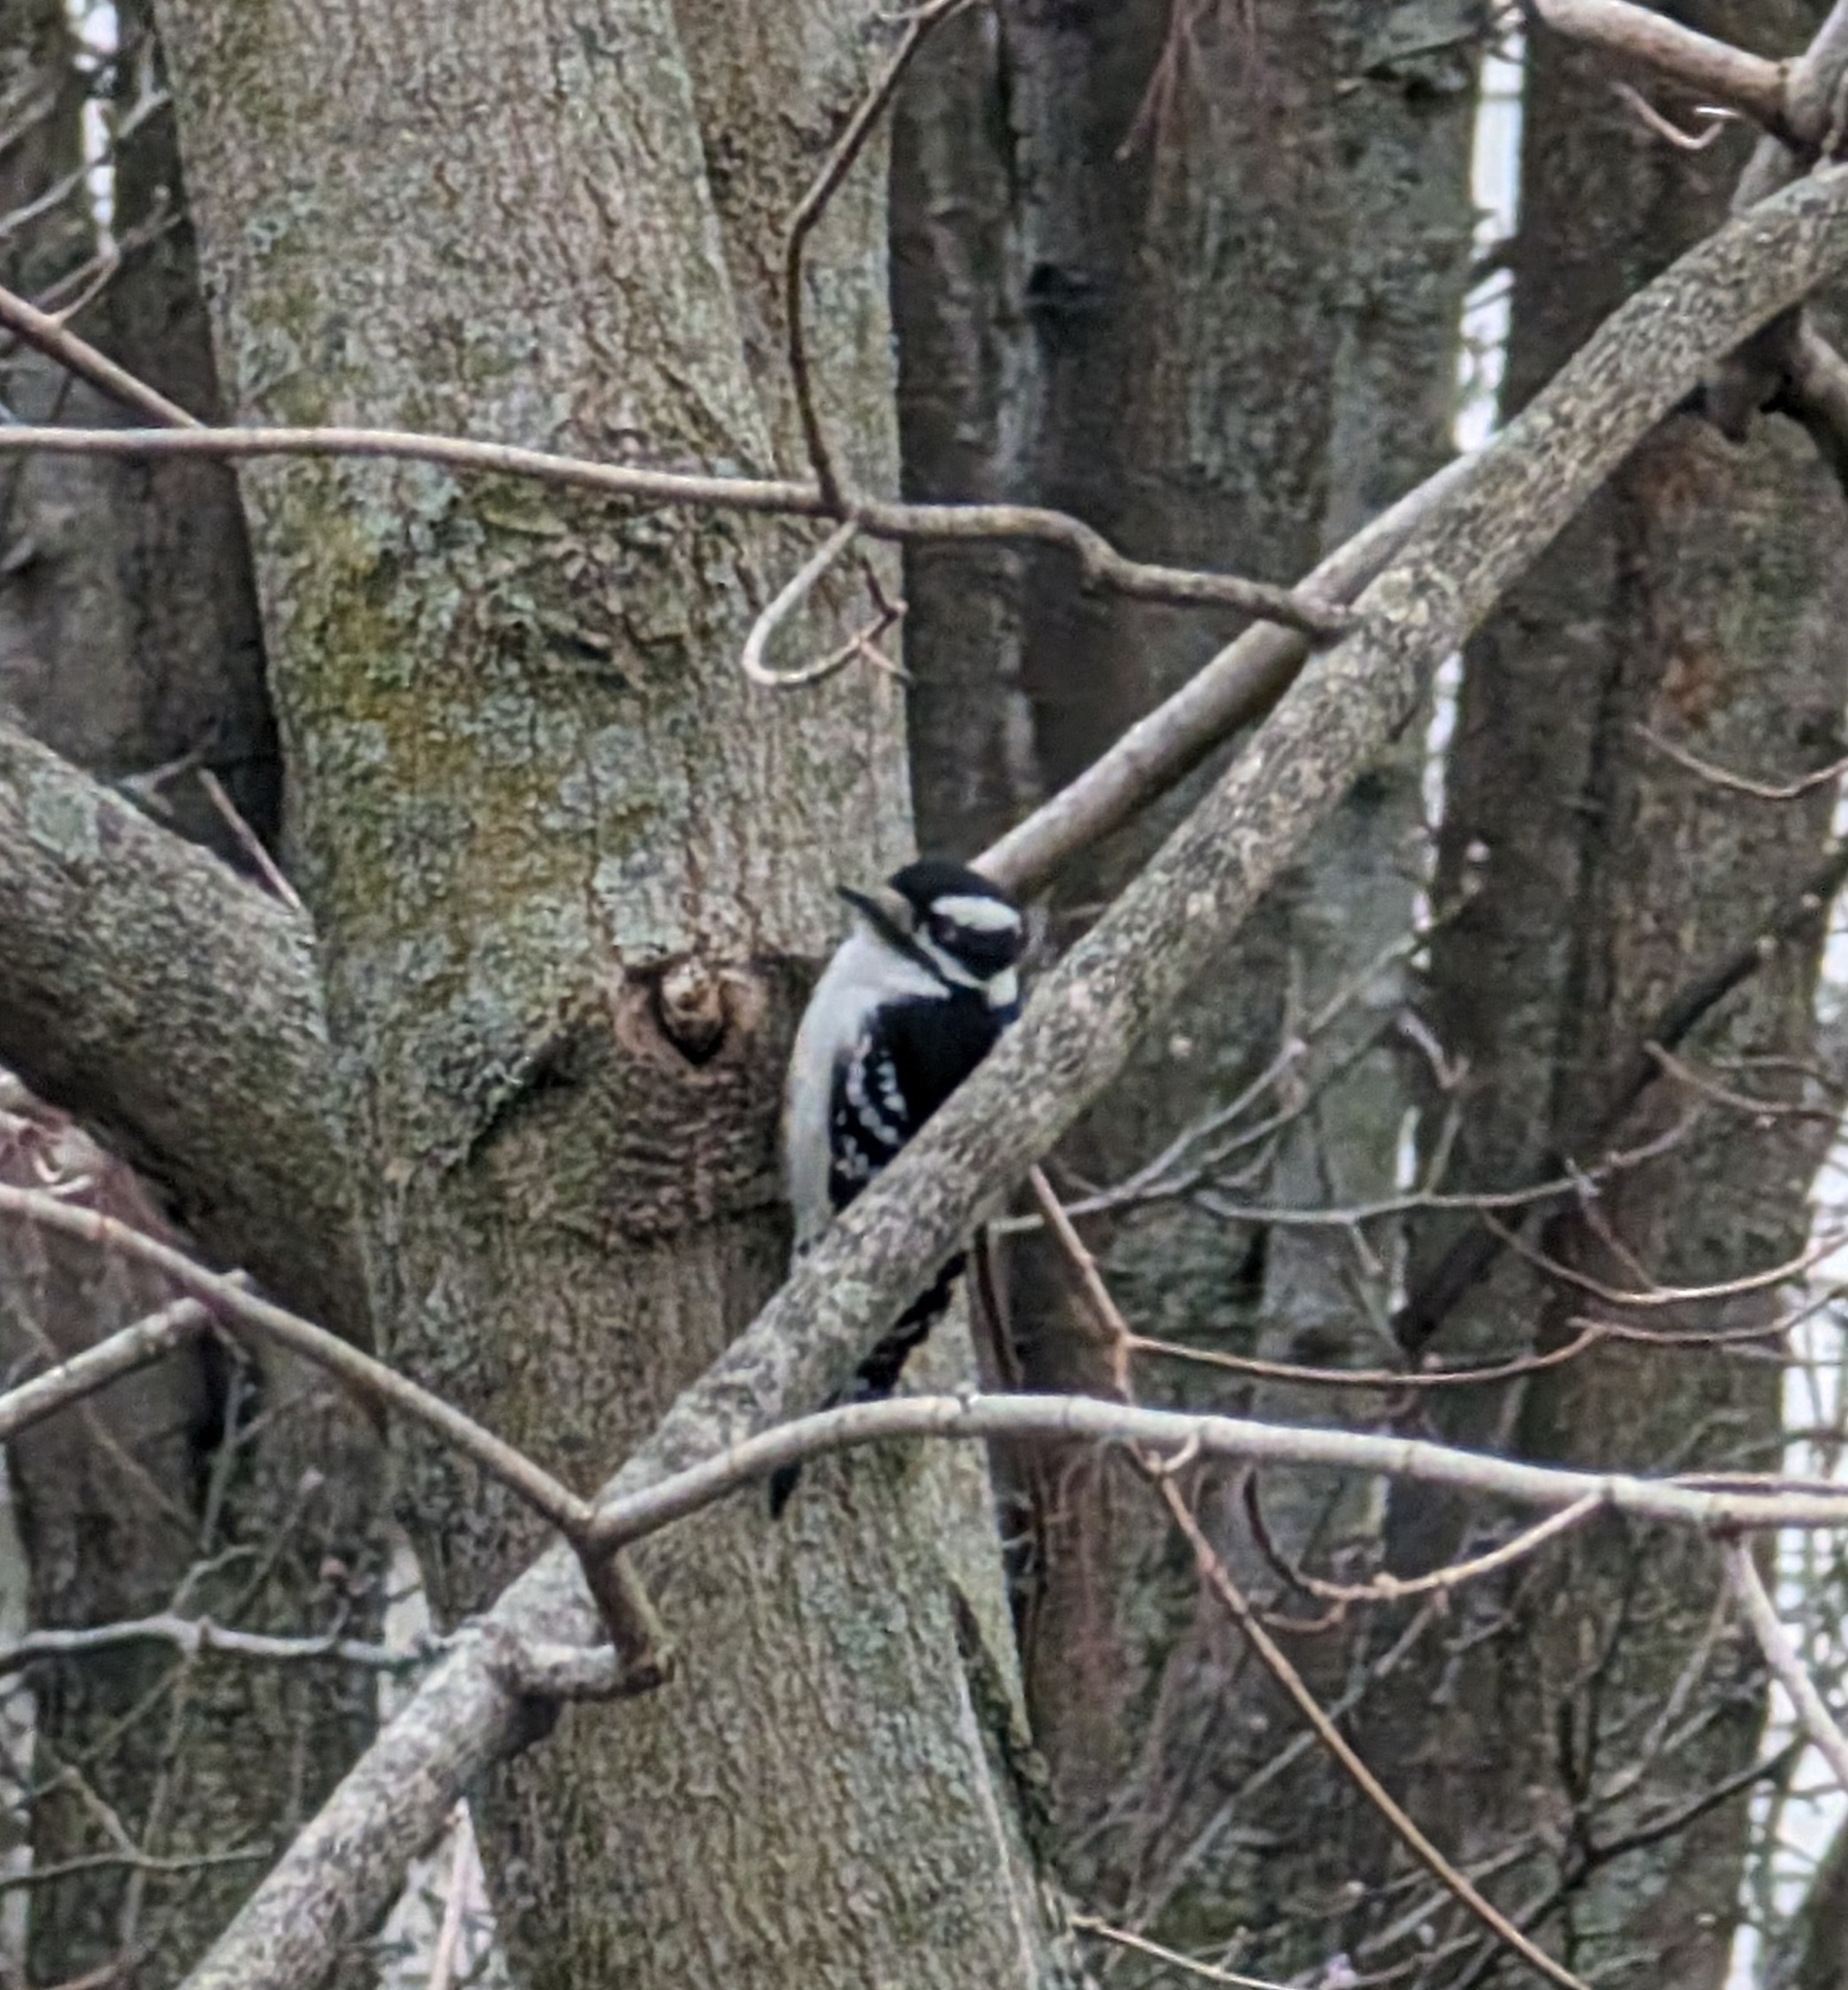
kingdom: Animalia
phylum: Chordata
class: Aves
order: Piciformes
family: Picidae
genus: Dryobates
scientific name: Dryobates pubescens
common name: Downy woodpecker
